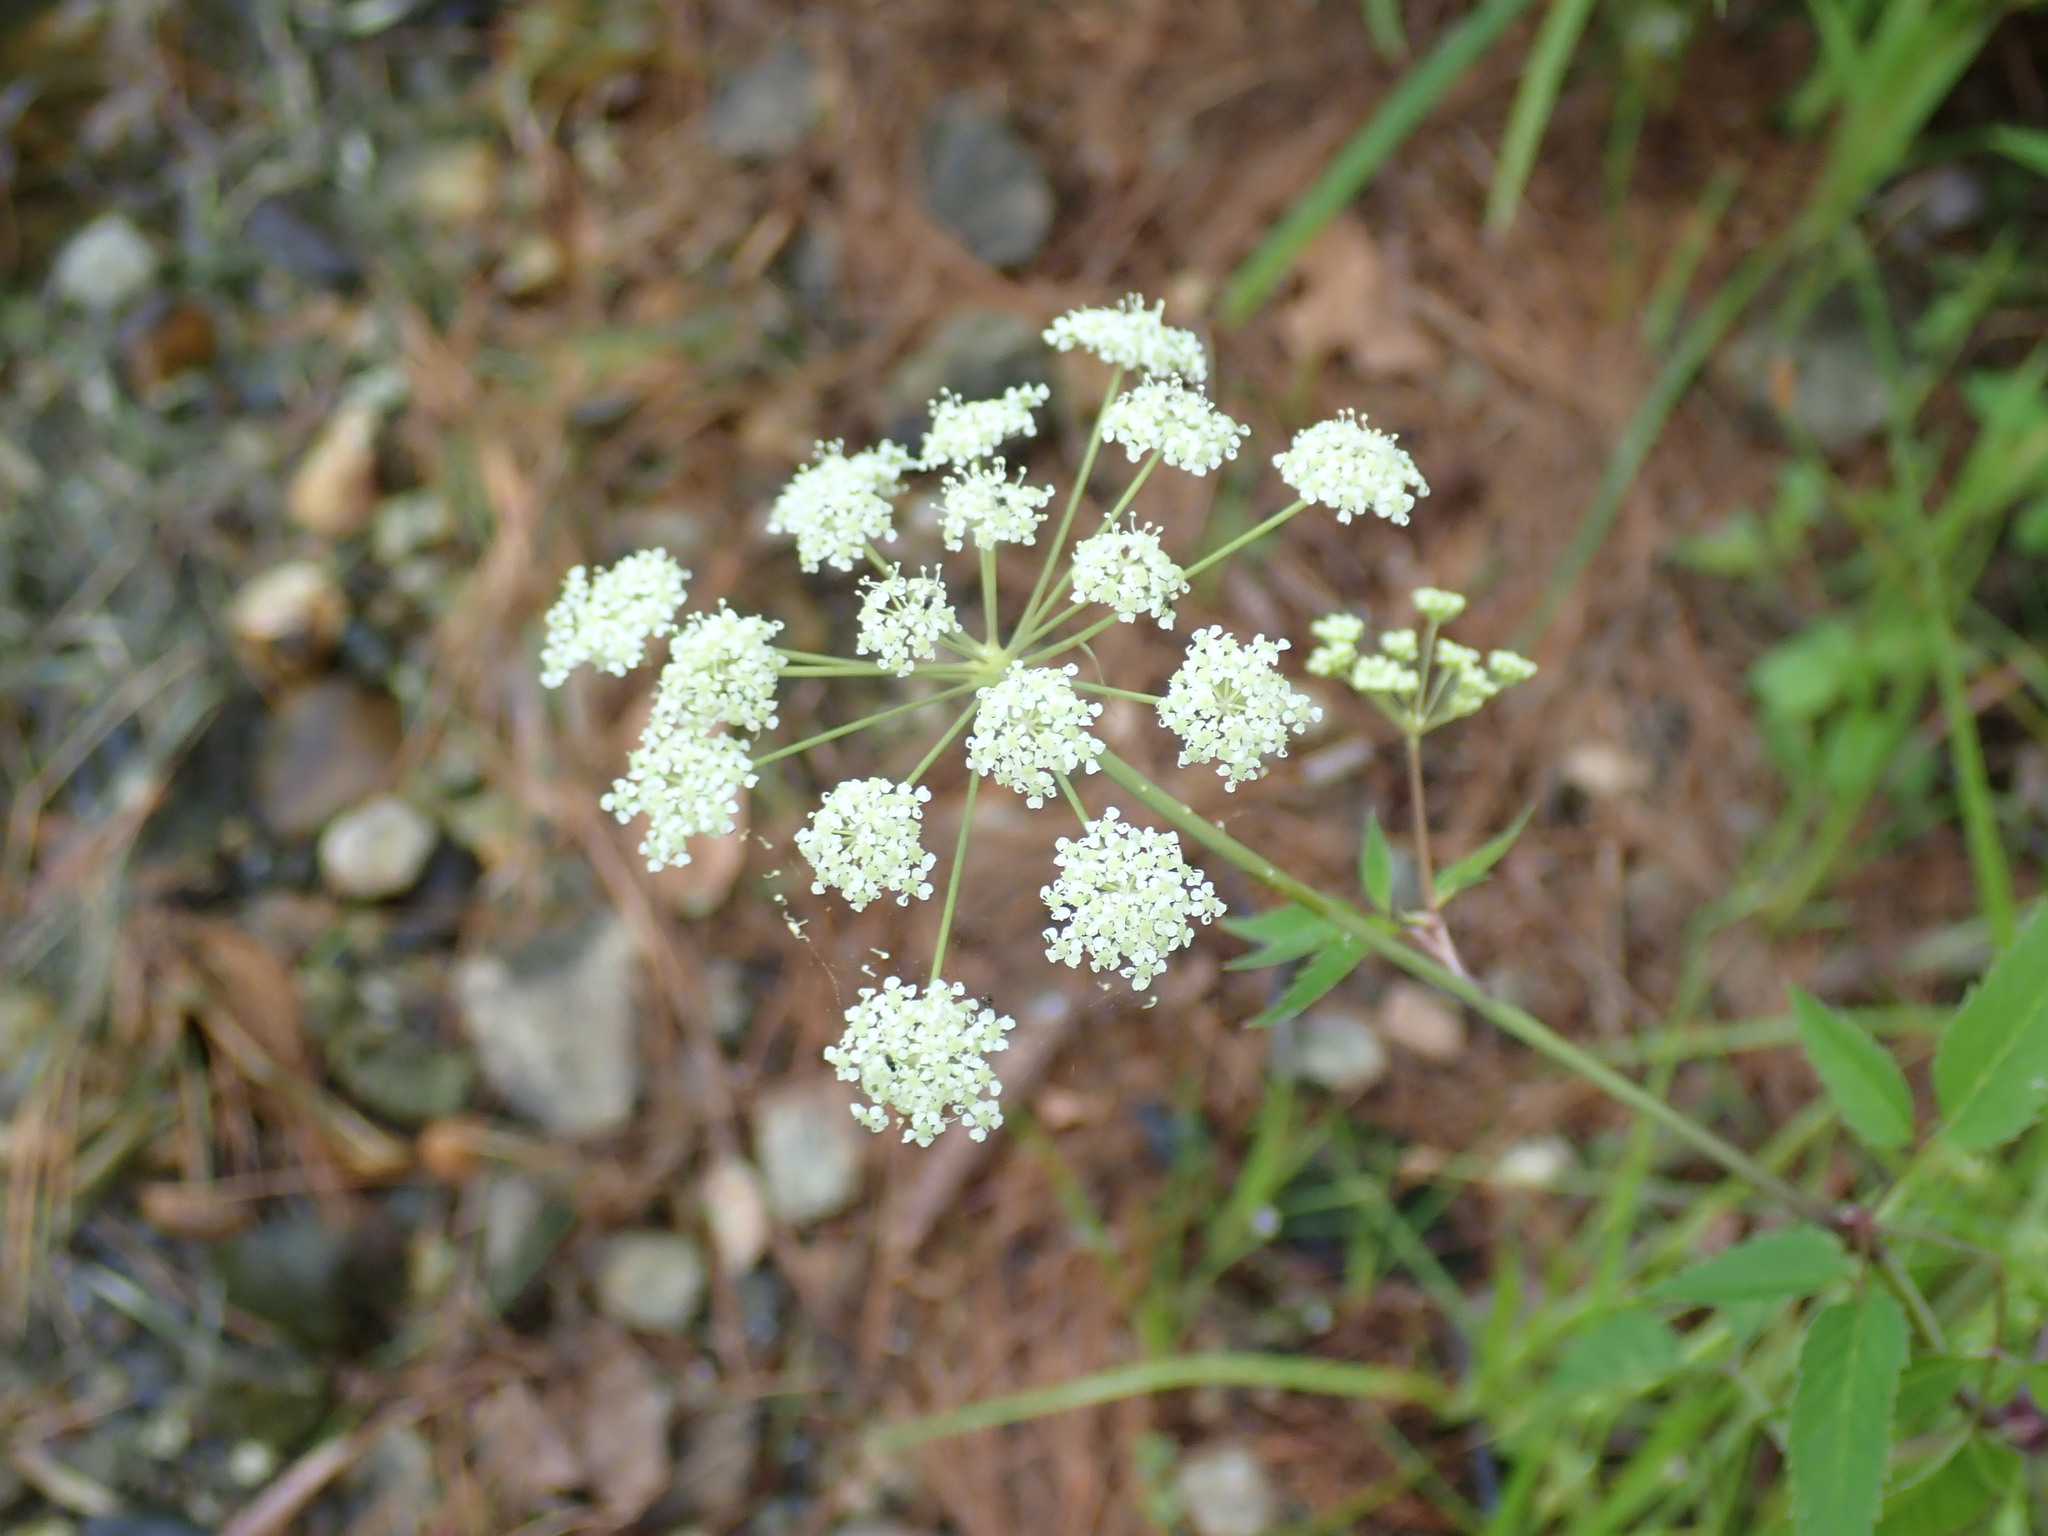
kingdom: Plantae
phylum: Tracheophyta
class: Magnoliopsida
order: Apiales
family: Apiaceae
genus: Cicuta
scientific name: Cicuta maculata
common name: Spotted cowbane
